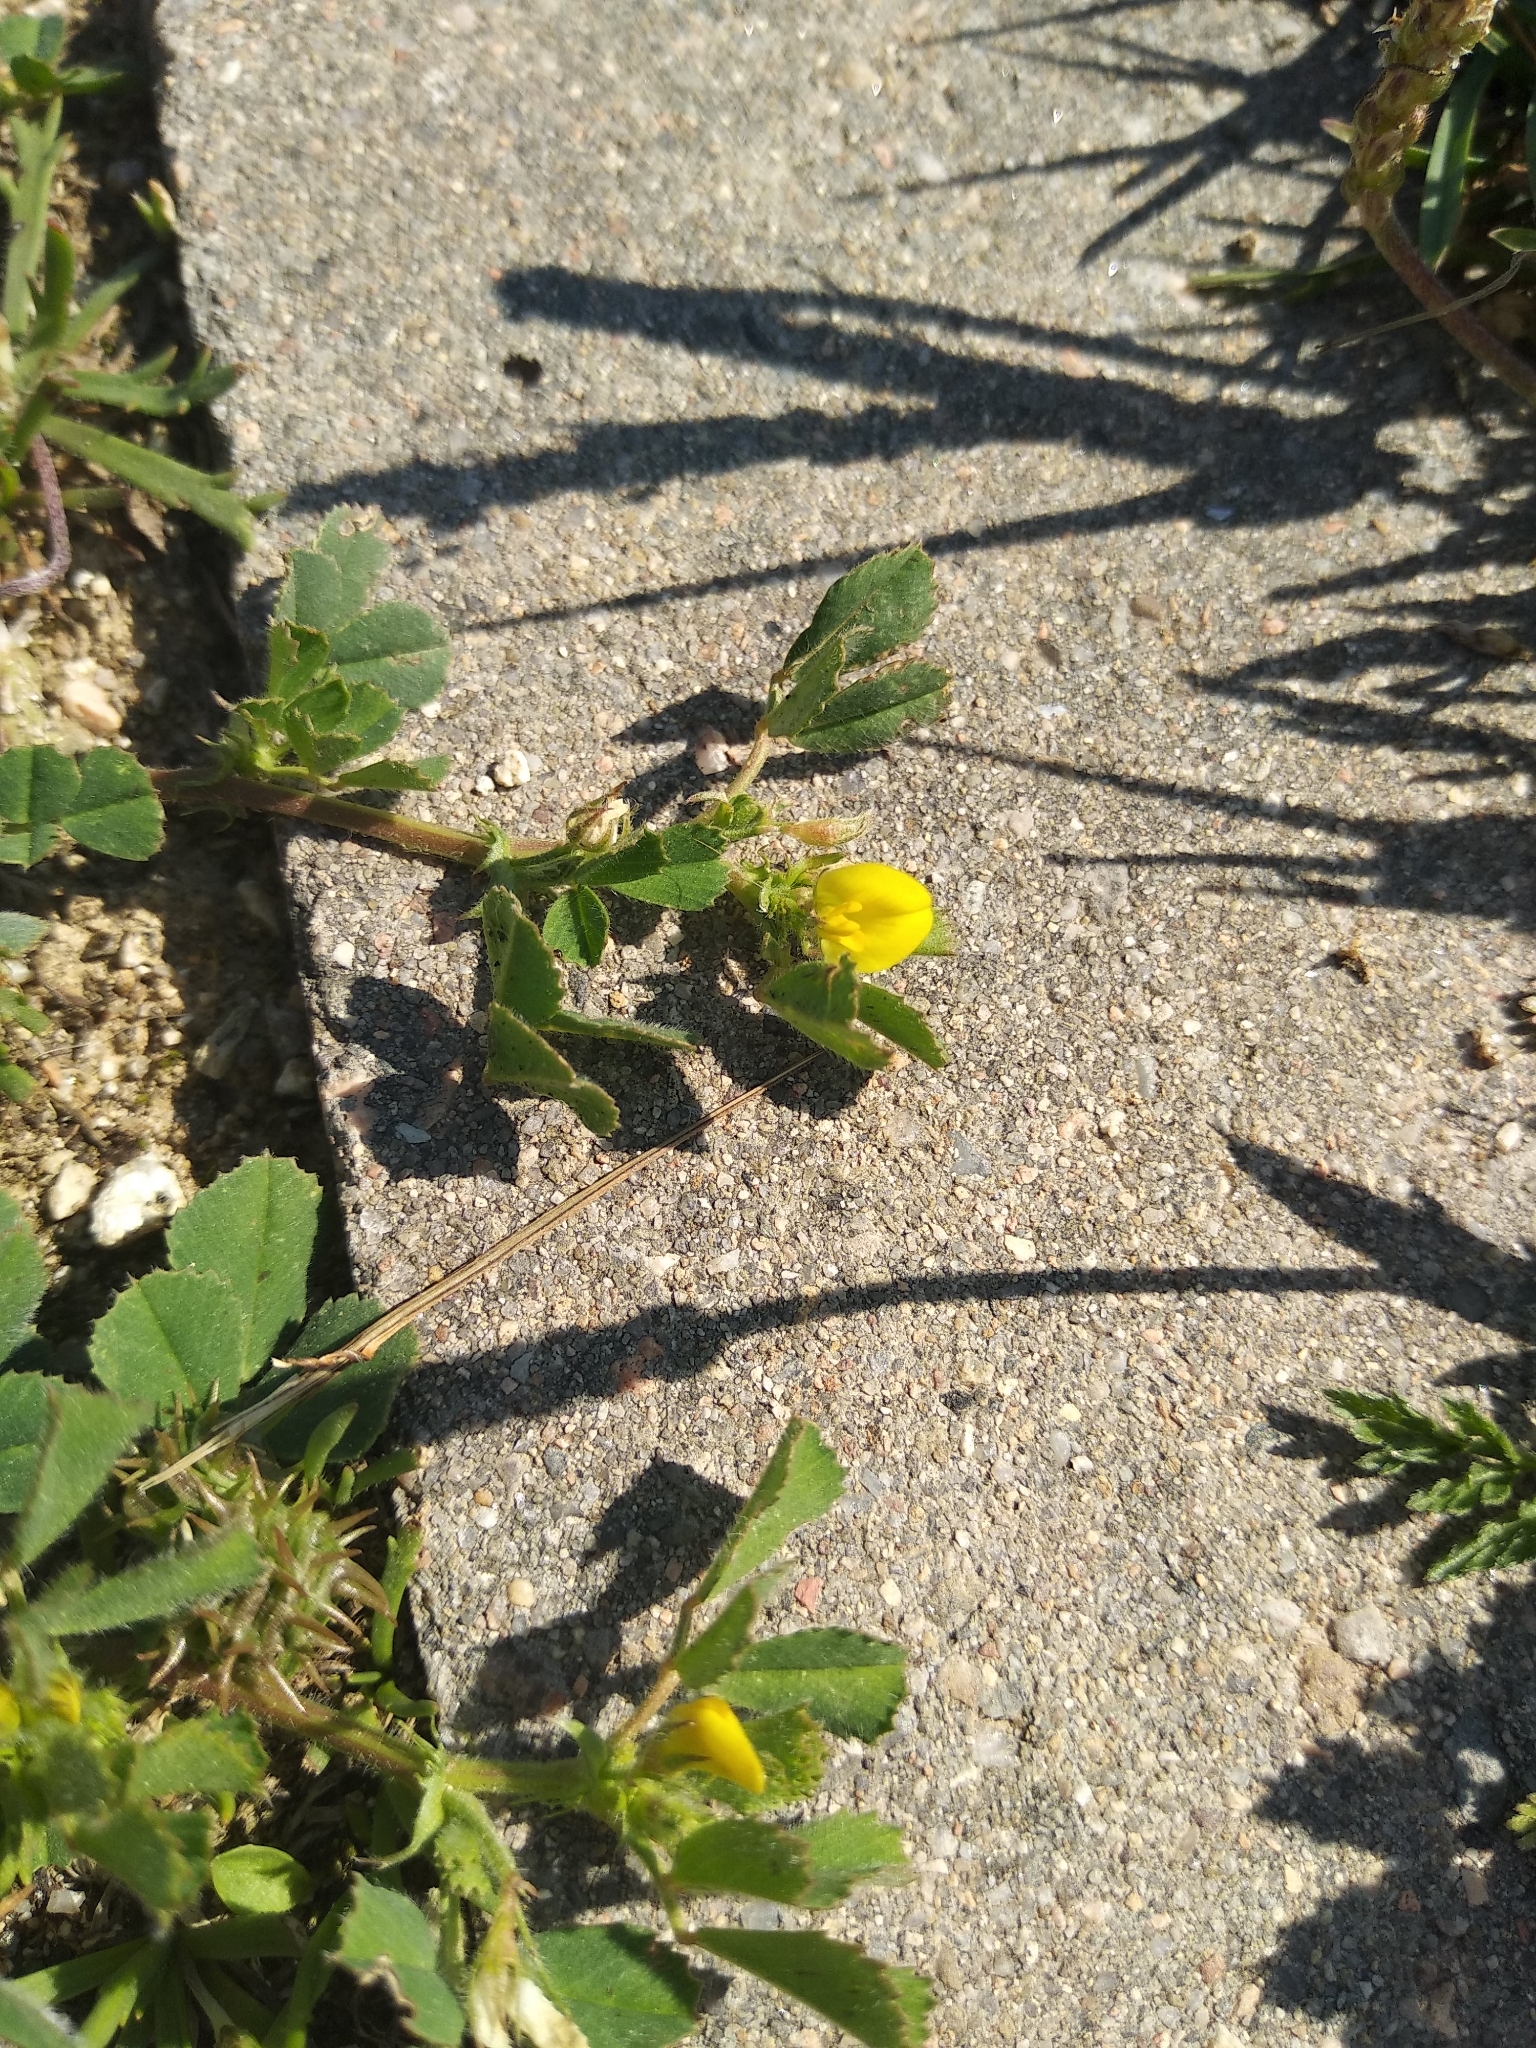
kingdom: Plantae
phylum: Tracheophyta
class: Magnoliopsida
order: Fabales
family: Fabaceae
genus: Medicago
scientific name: Medicago polymorpha
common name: Burclover
